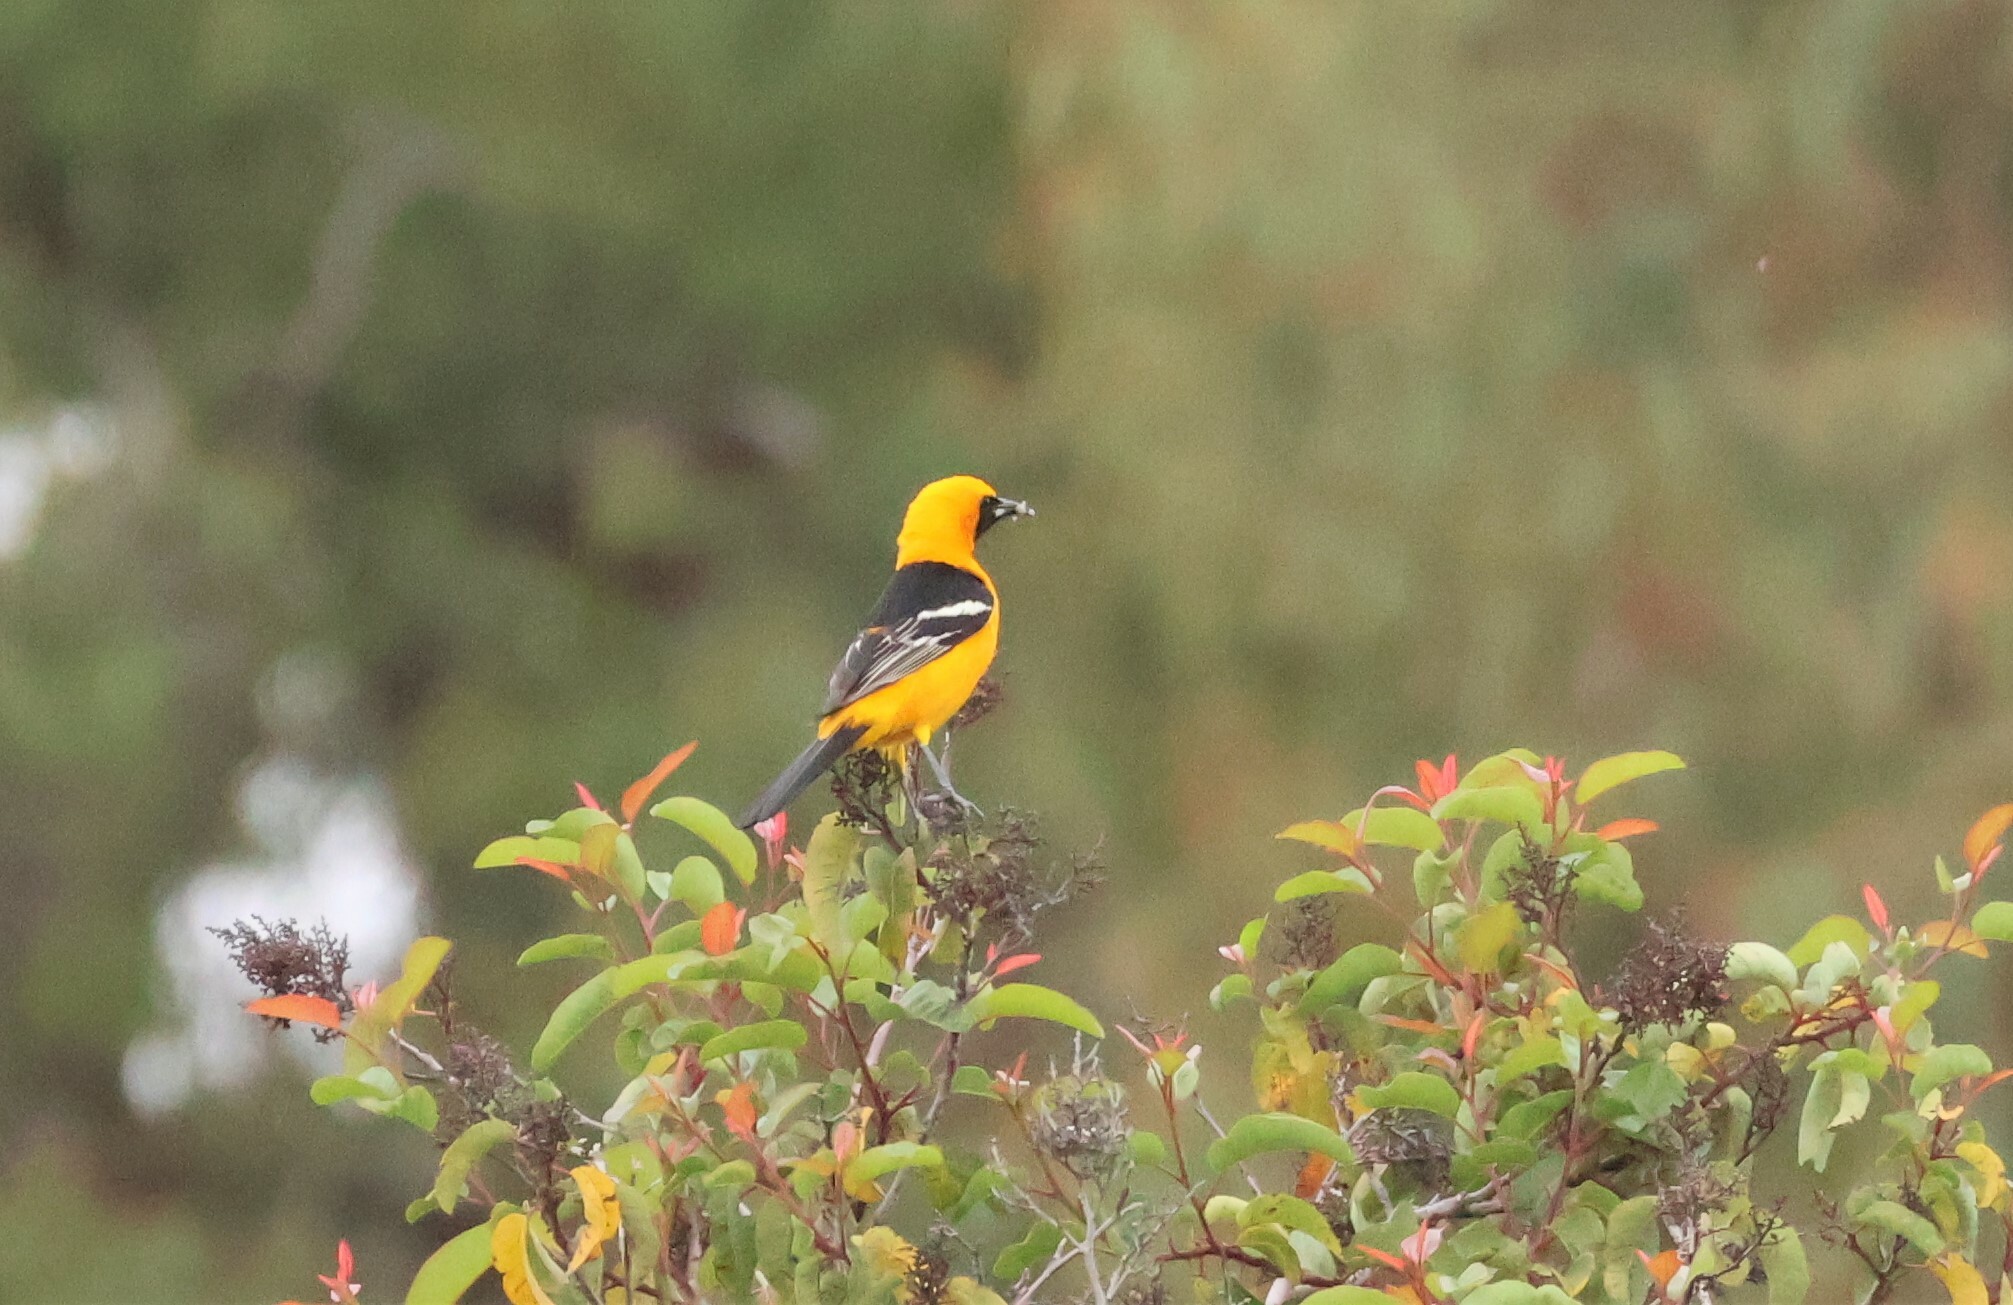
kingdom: Animalia
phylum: Chordata
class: Aves
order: Passeriformes
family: Icteridae
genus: Icterus
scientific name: Icterus cucullatus
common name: Hooded oriole
